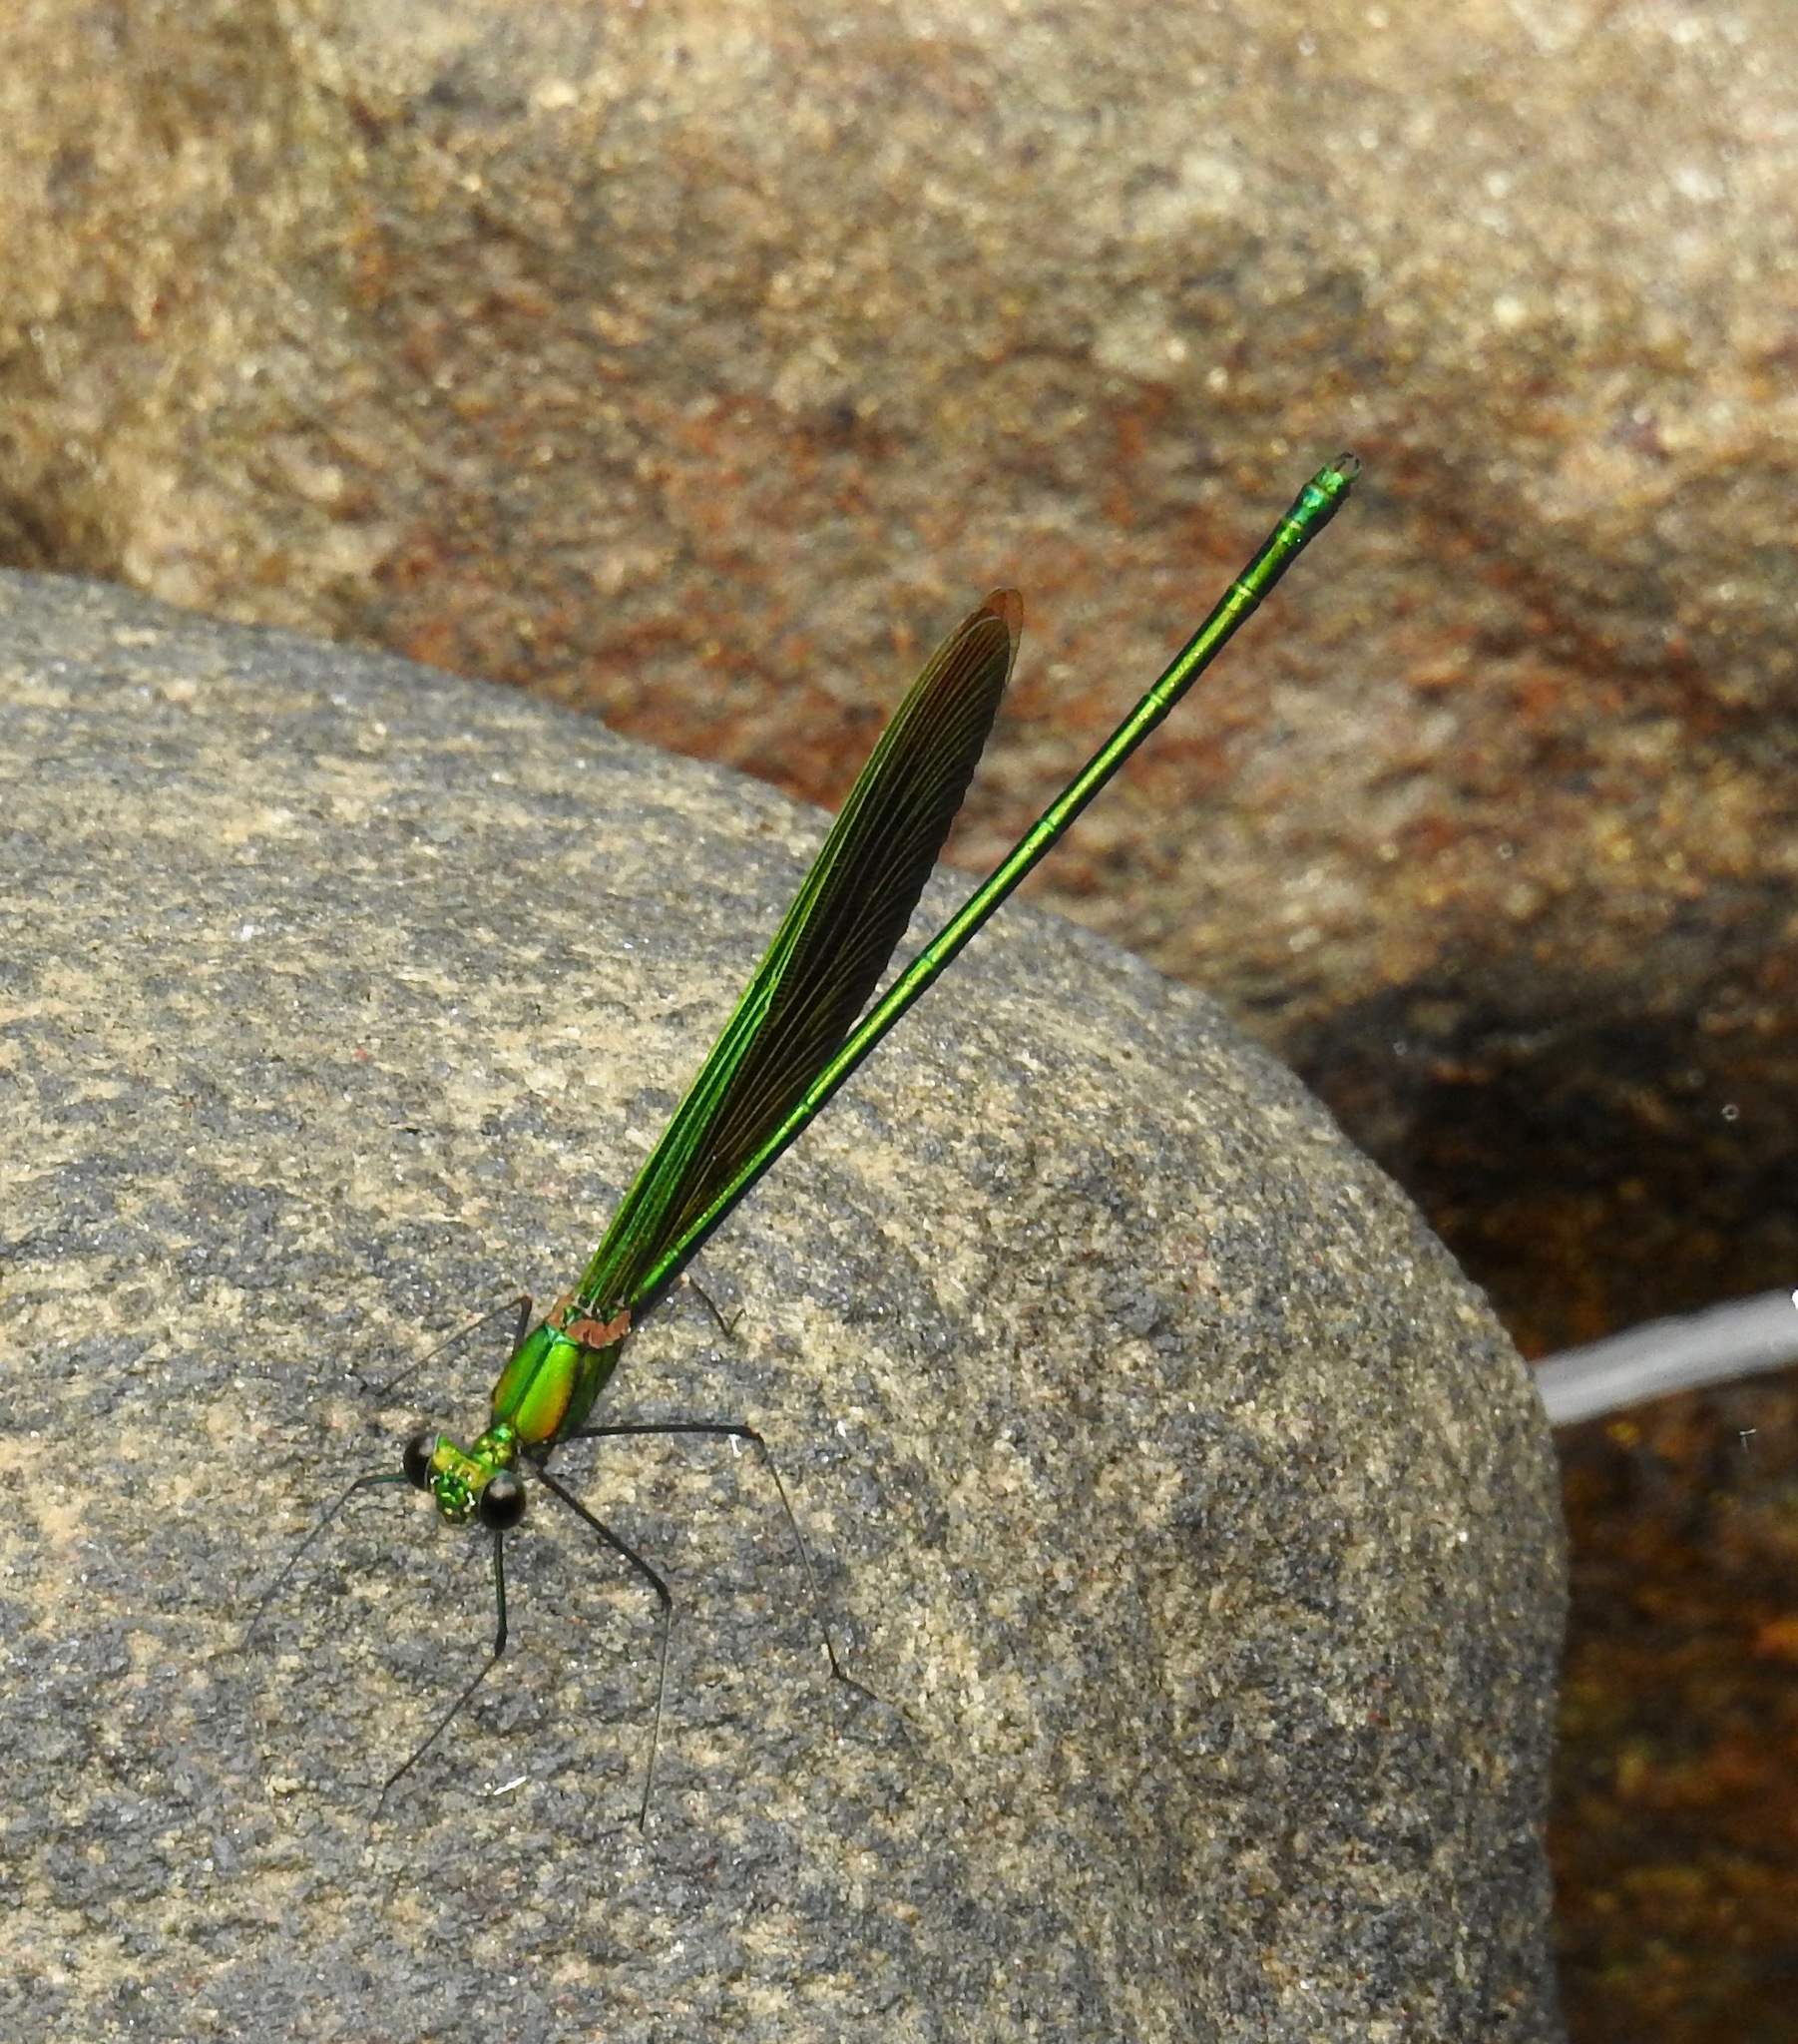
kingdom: Animalia
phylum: Arthropoda
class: Insecta
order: Odonata
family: Calopterygidae
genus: Neurobasis
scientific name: Neurobasis chinensis
